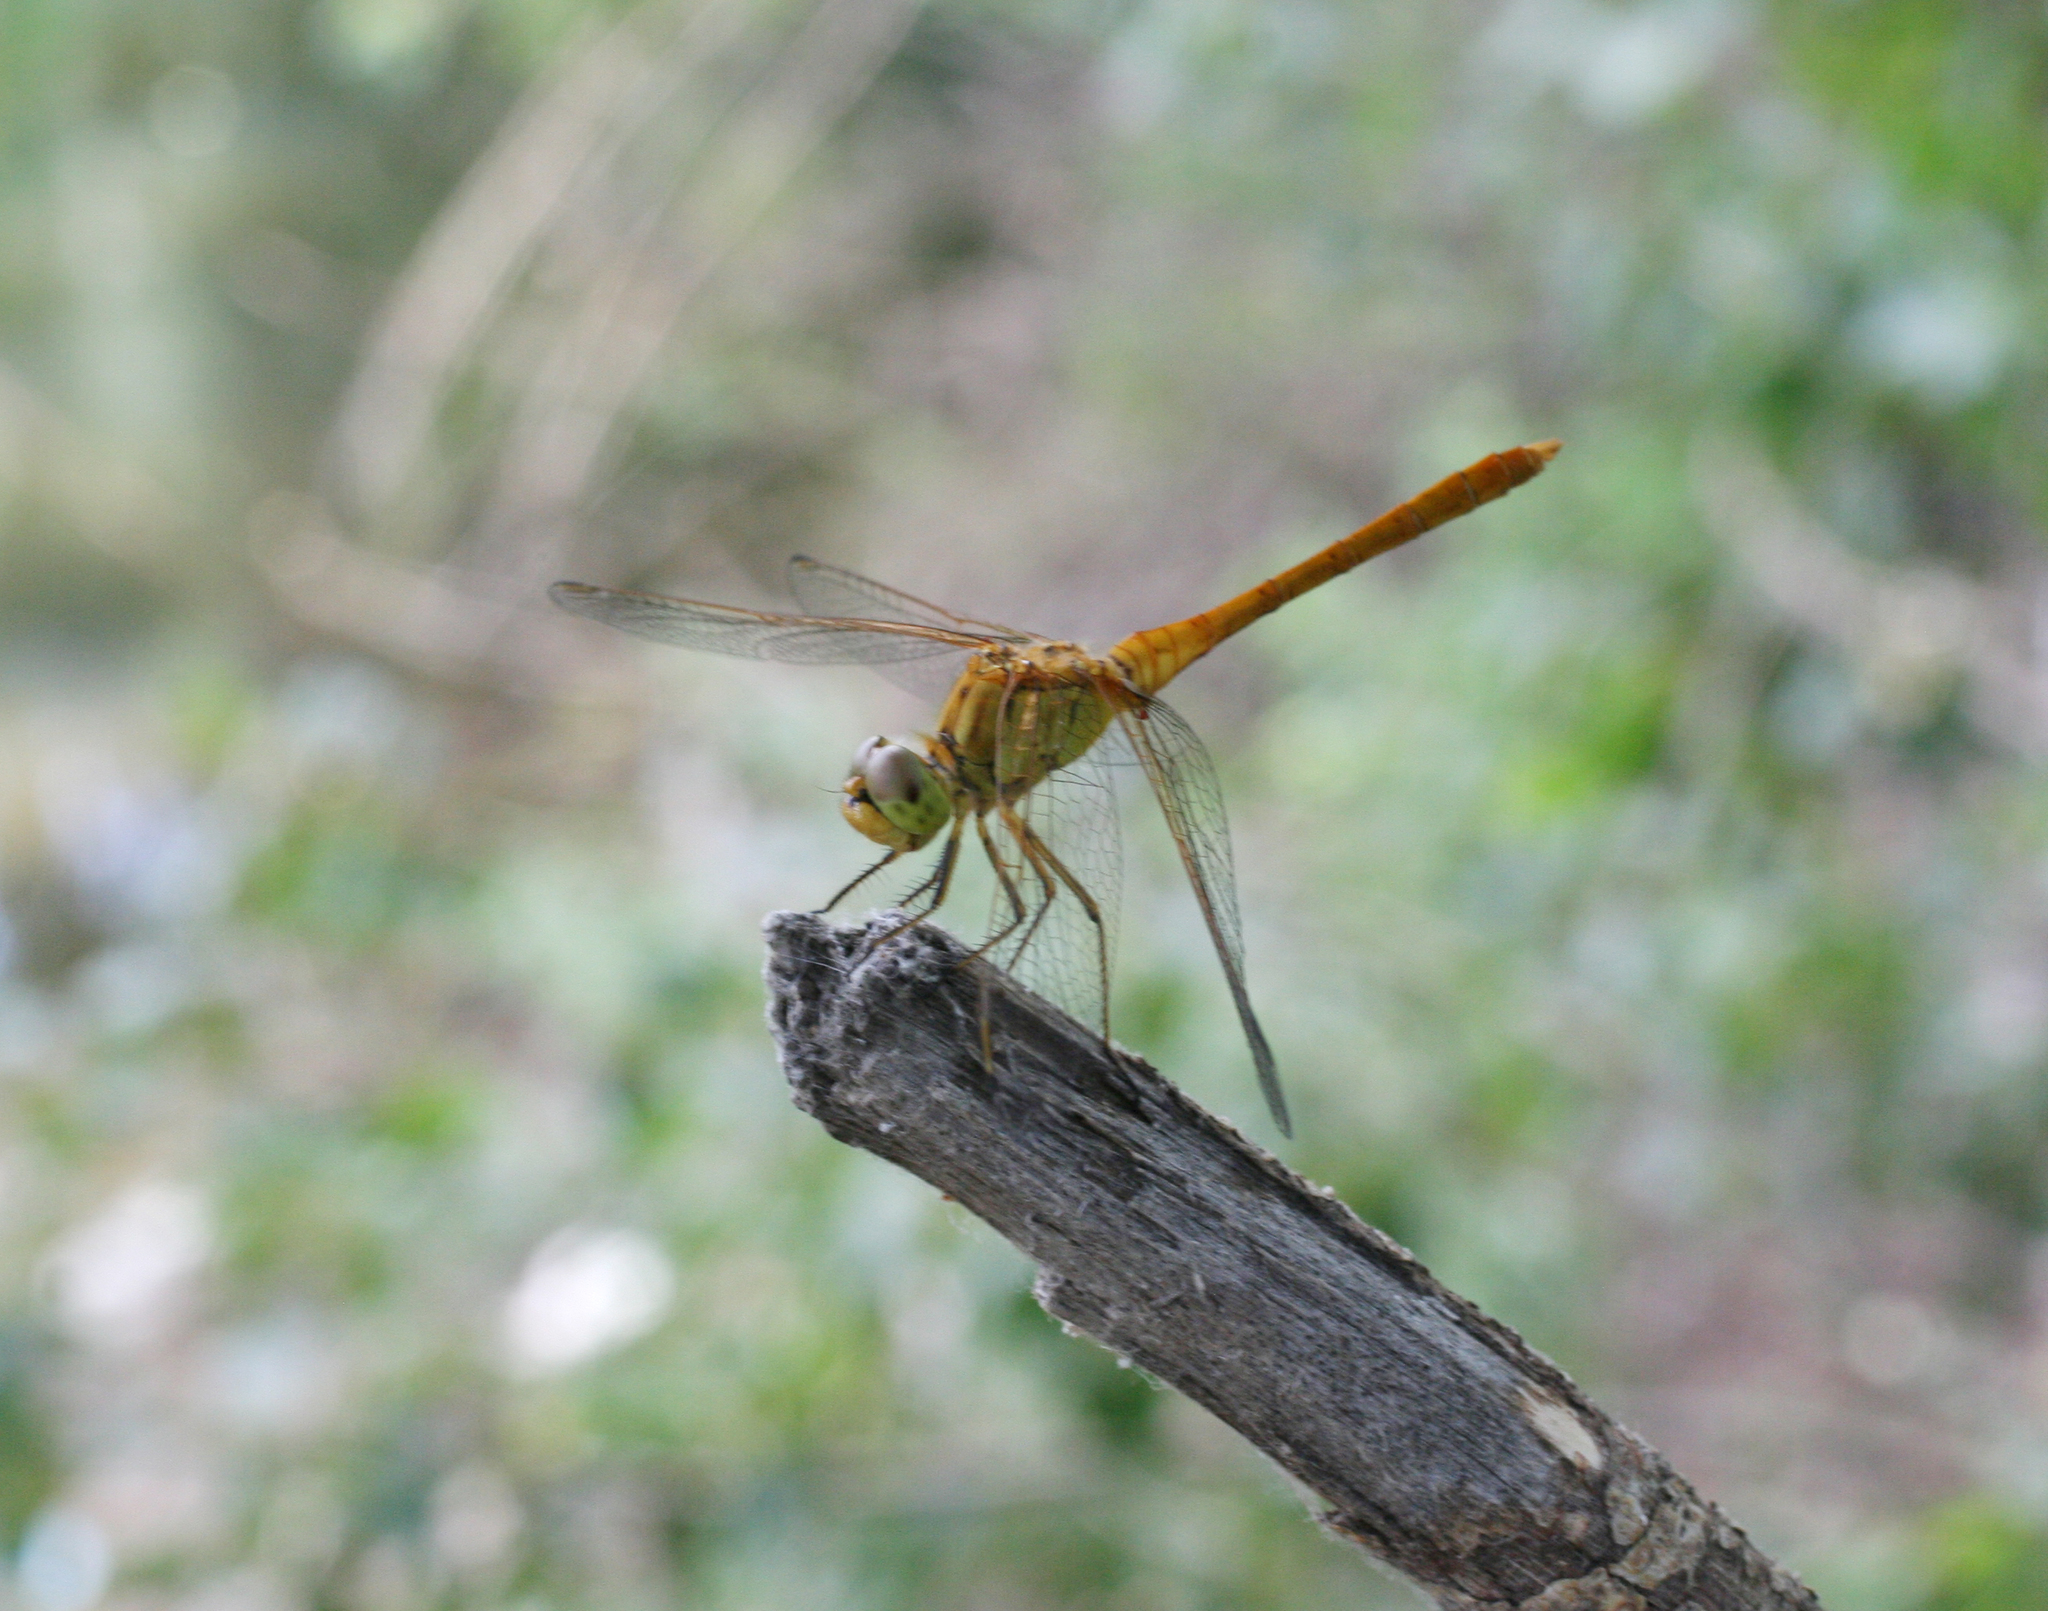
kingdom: Animalia
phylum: Arthropoda
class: Insecta
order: Odonata
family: Libellulidae
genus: Sympetrum
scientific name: Sympetrum meridionale
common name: Southern darter
